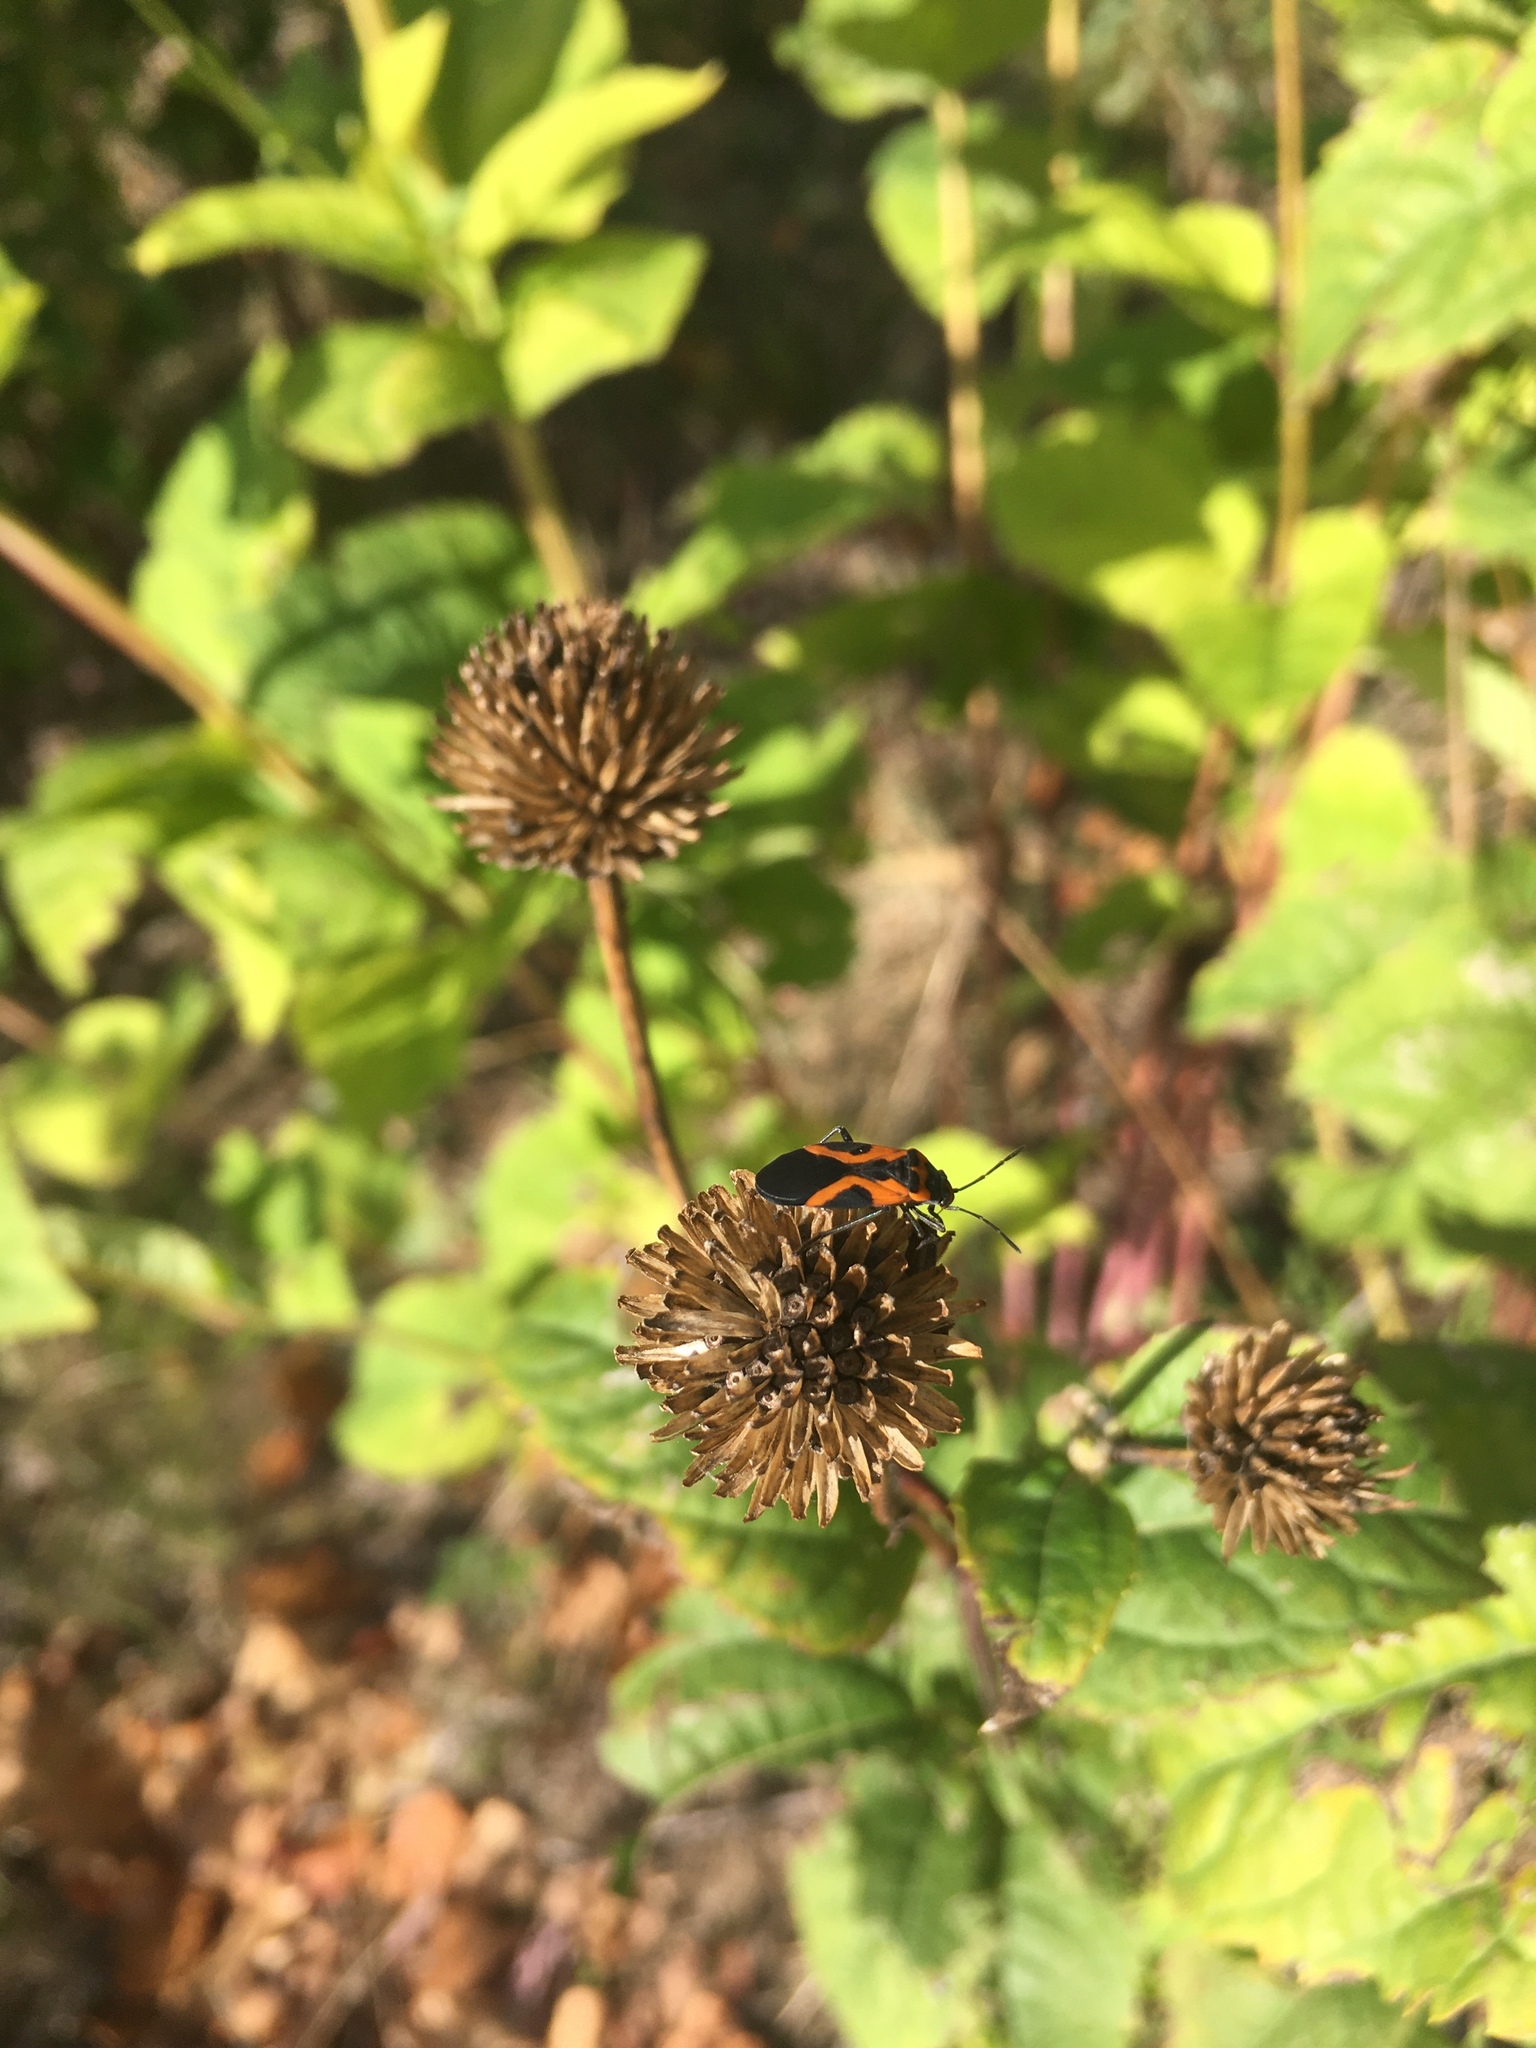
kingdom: Animalia
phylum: Arthropoda
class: Insecta
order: Hemiptera
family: Lygaeidae
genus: Lygaeus
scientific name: Lygaeus turcicus
